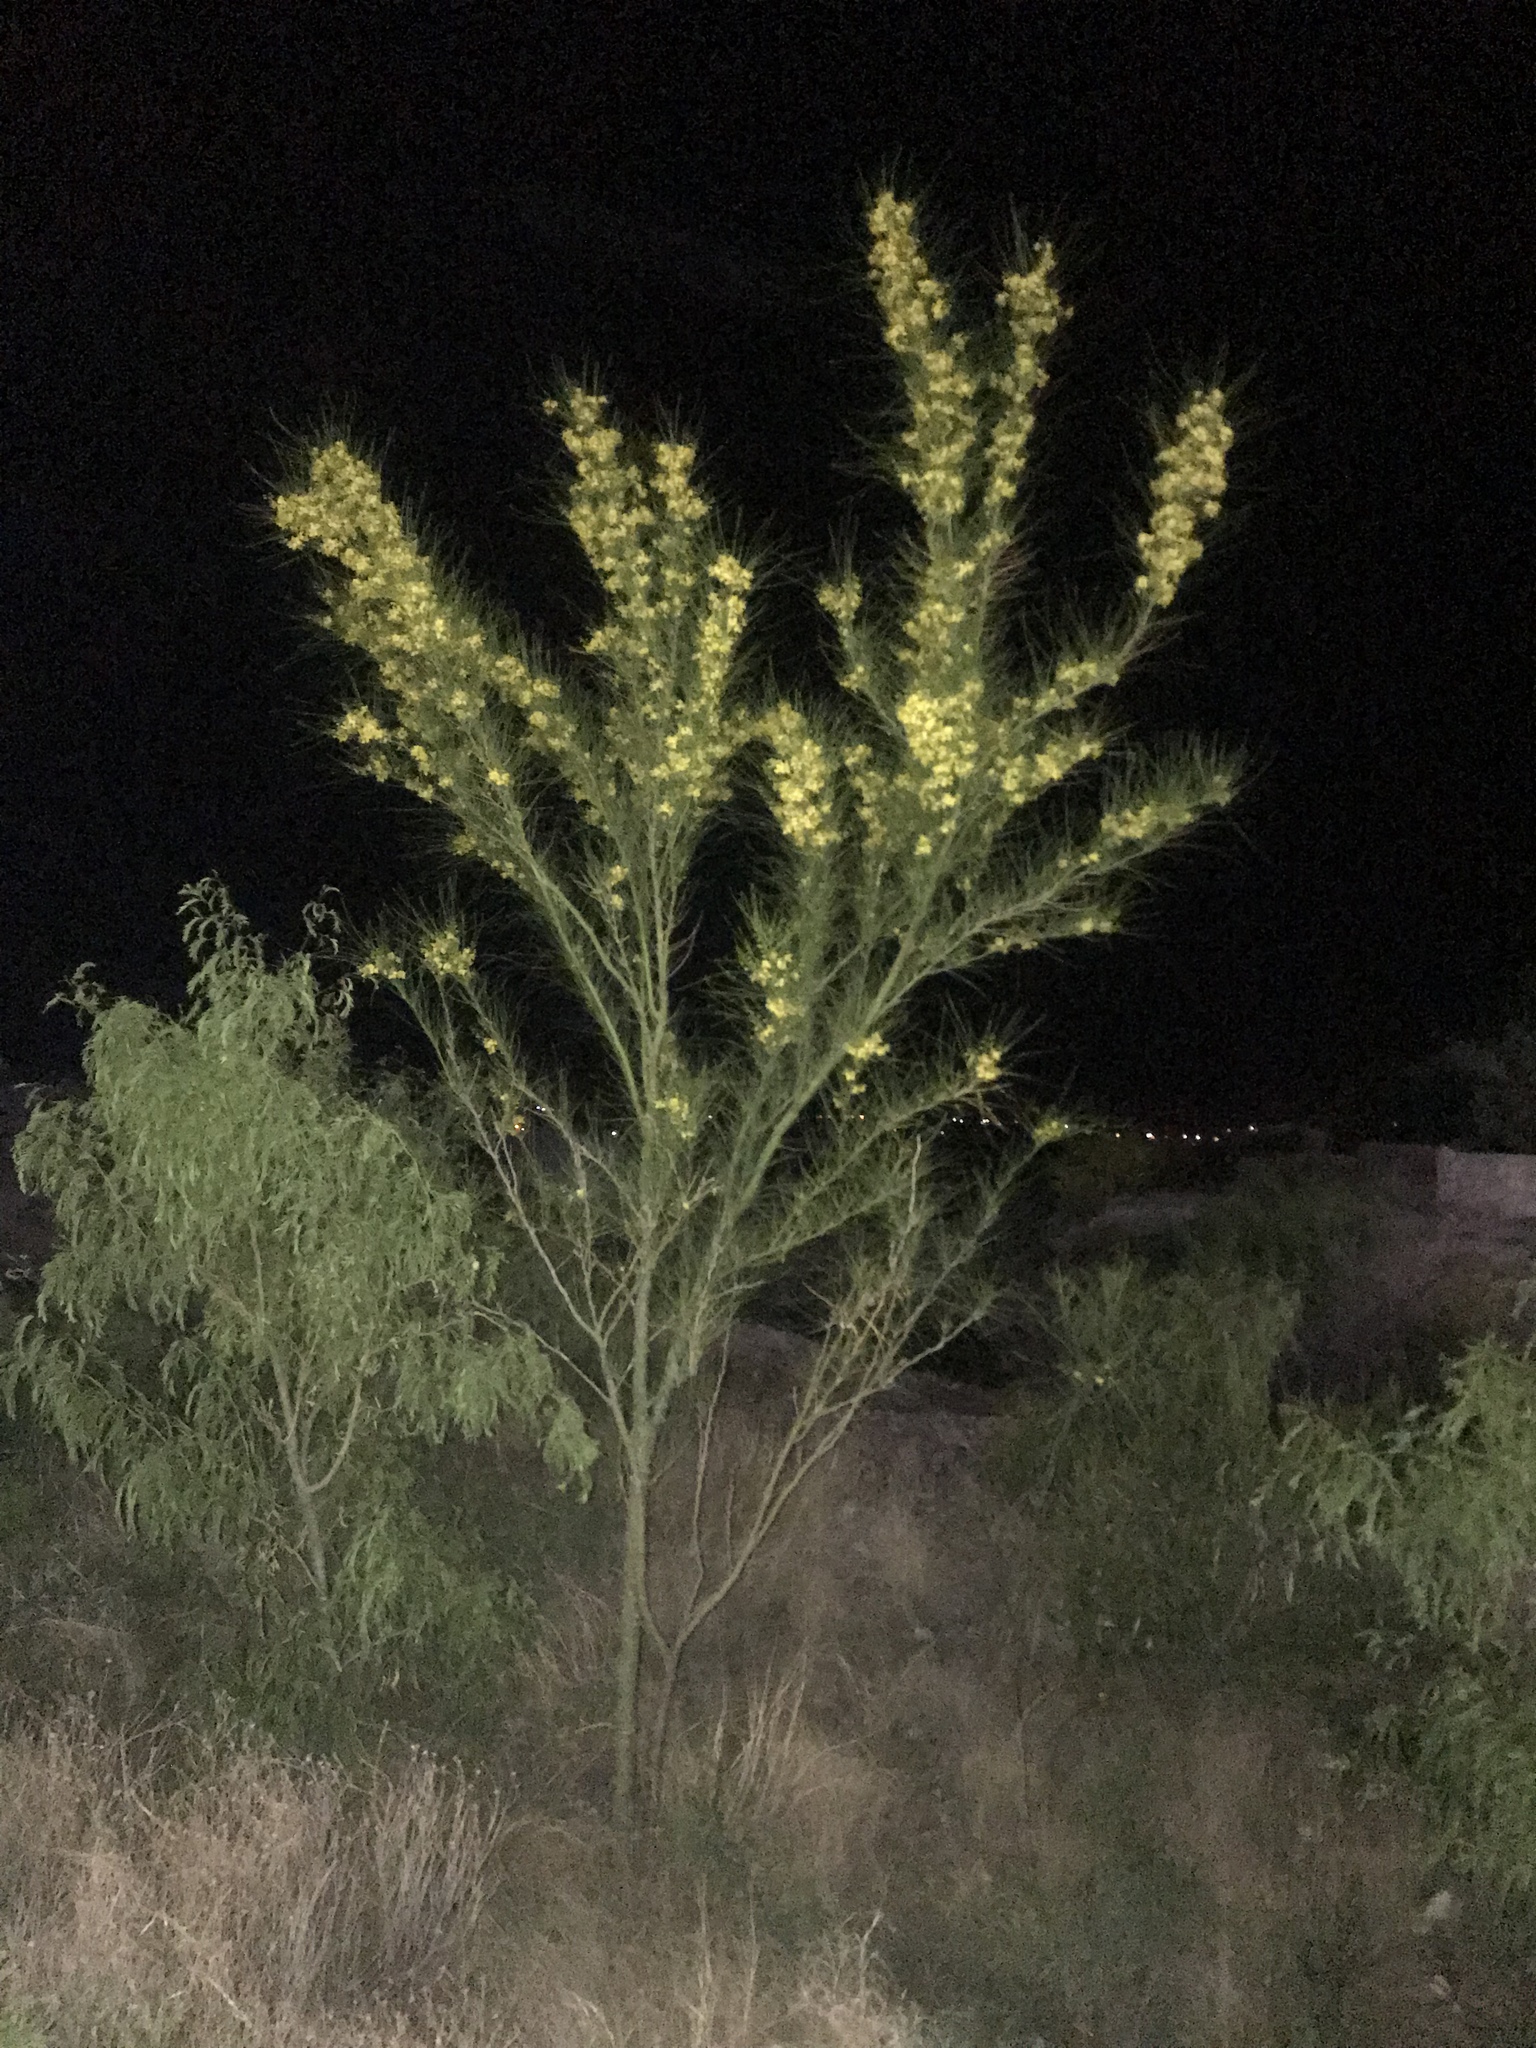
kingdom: Plantae
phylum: Tracheophyta
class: Magnoliopsida
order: Fabales
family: Fabaceae
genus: Parkinsonia
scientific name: Parkinsonia aculeata
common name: Jerusalem thorn
